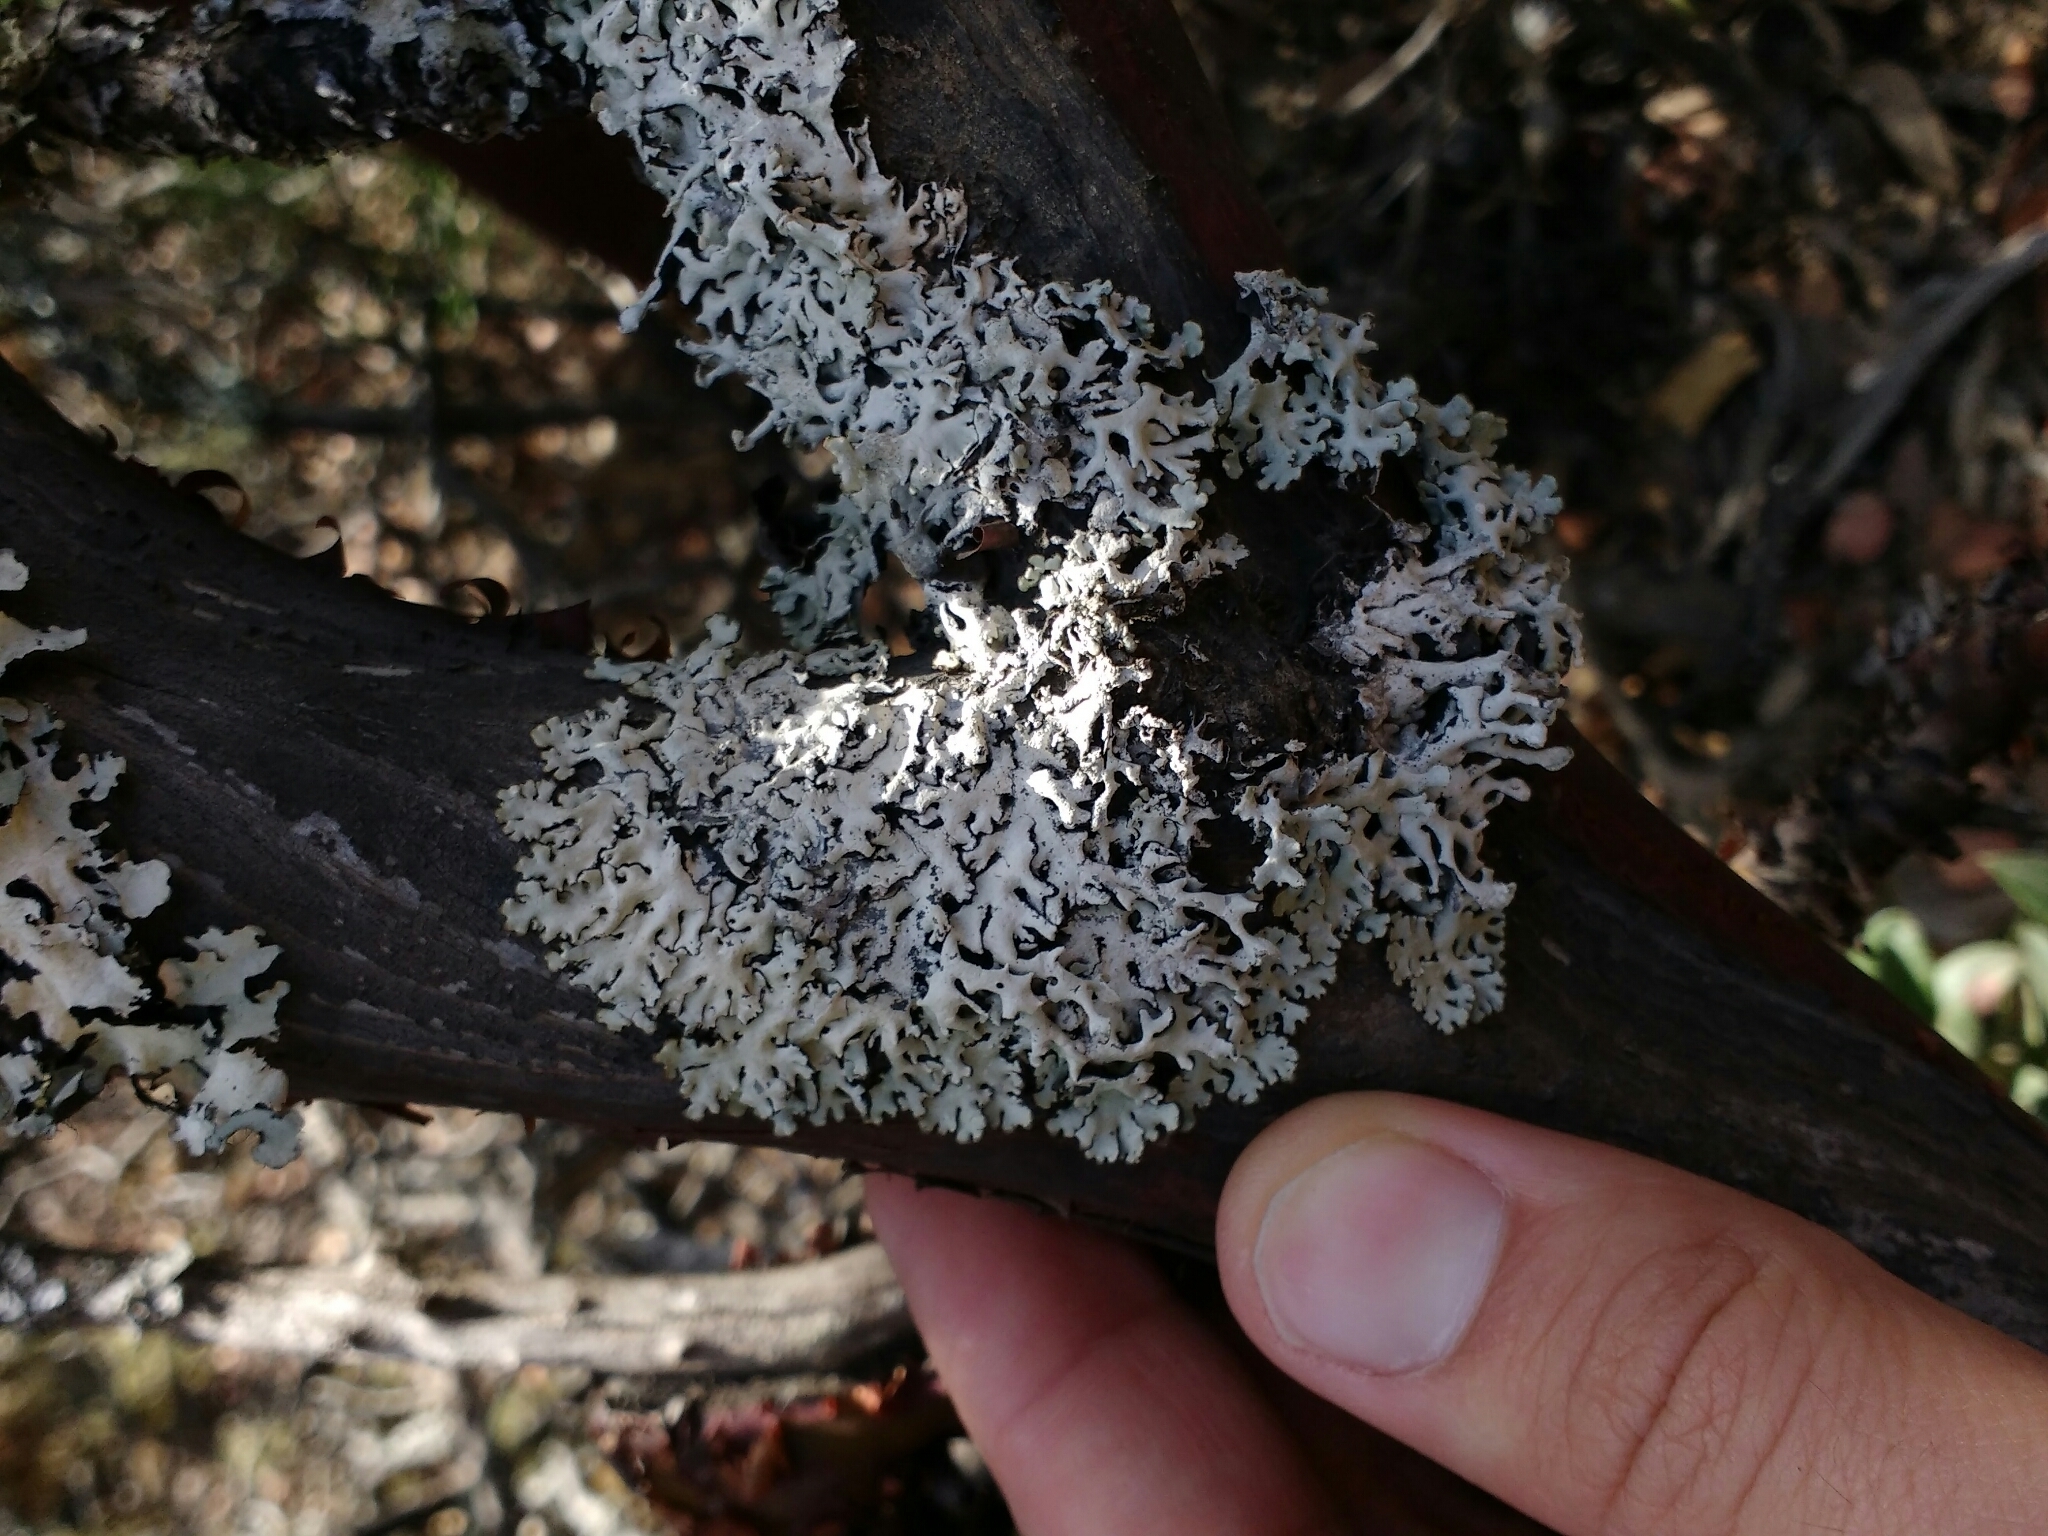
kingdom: Fungi
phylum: Ascomycota
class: Lecanoromycetes
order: Lecanorales
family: Parmeliaceae
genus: Hypogymnia
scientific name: Hypogymnia physodes
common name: Dark crottle
